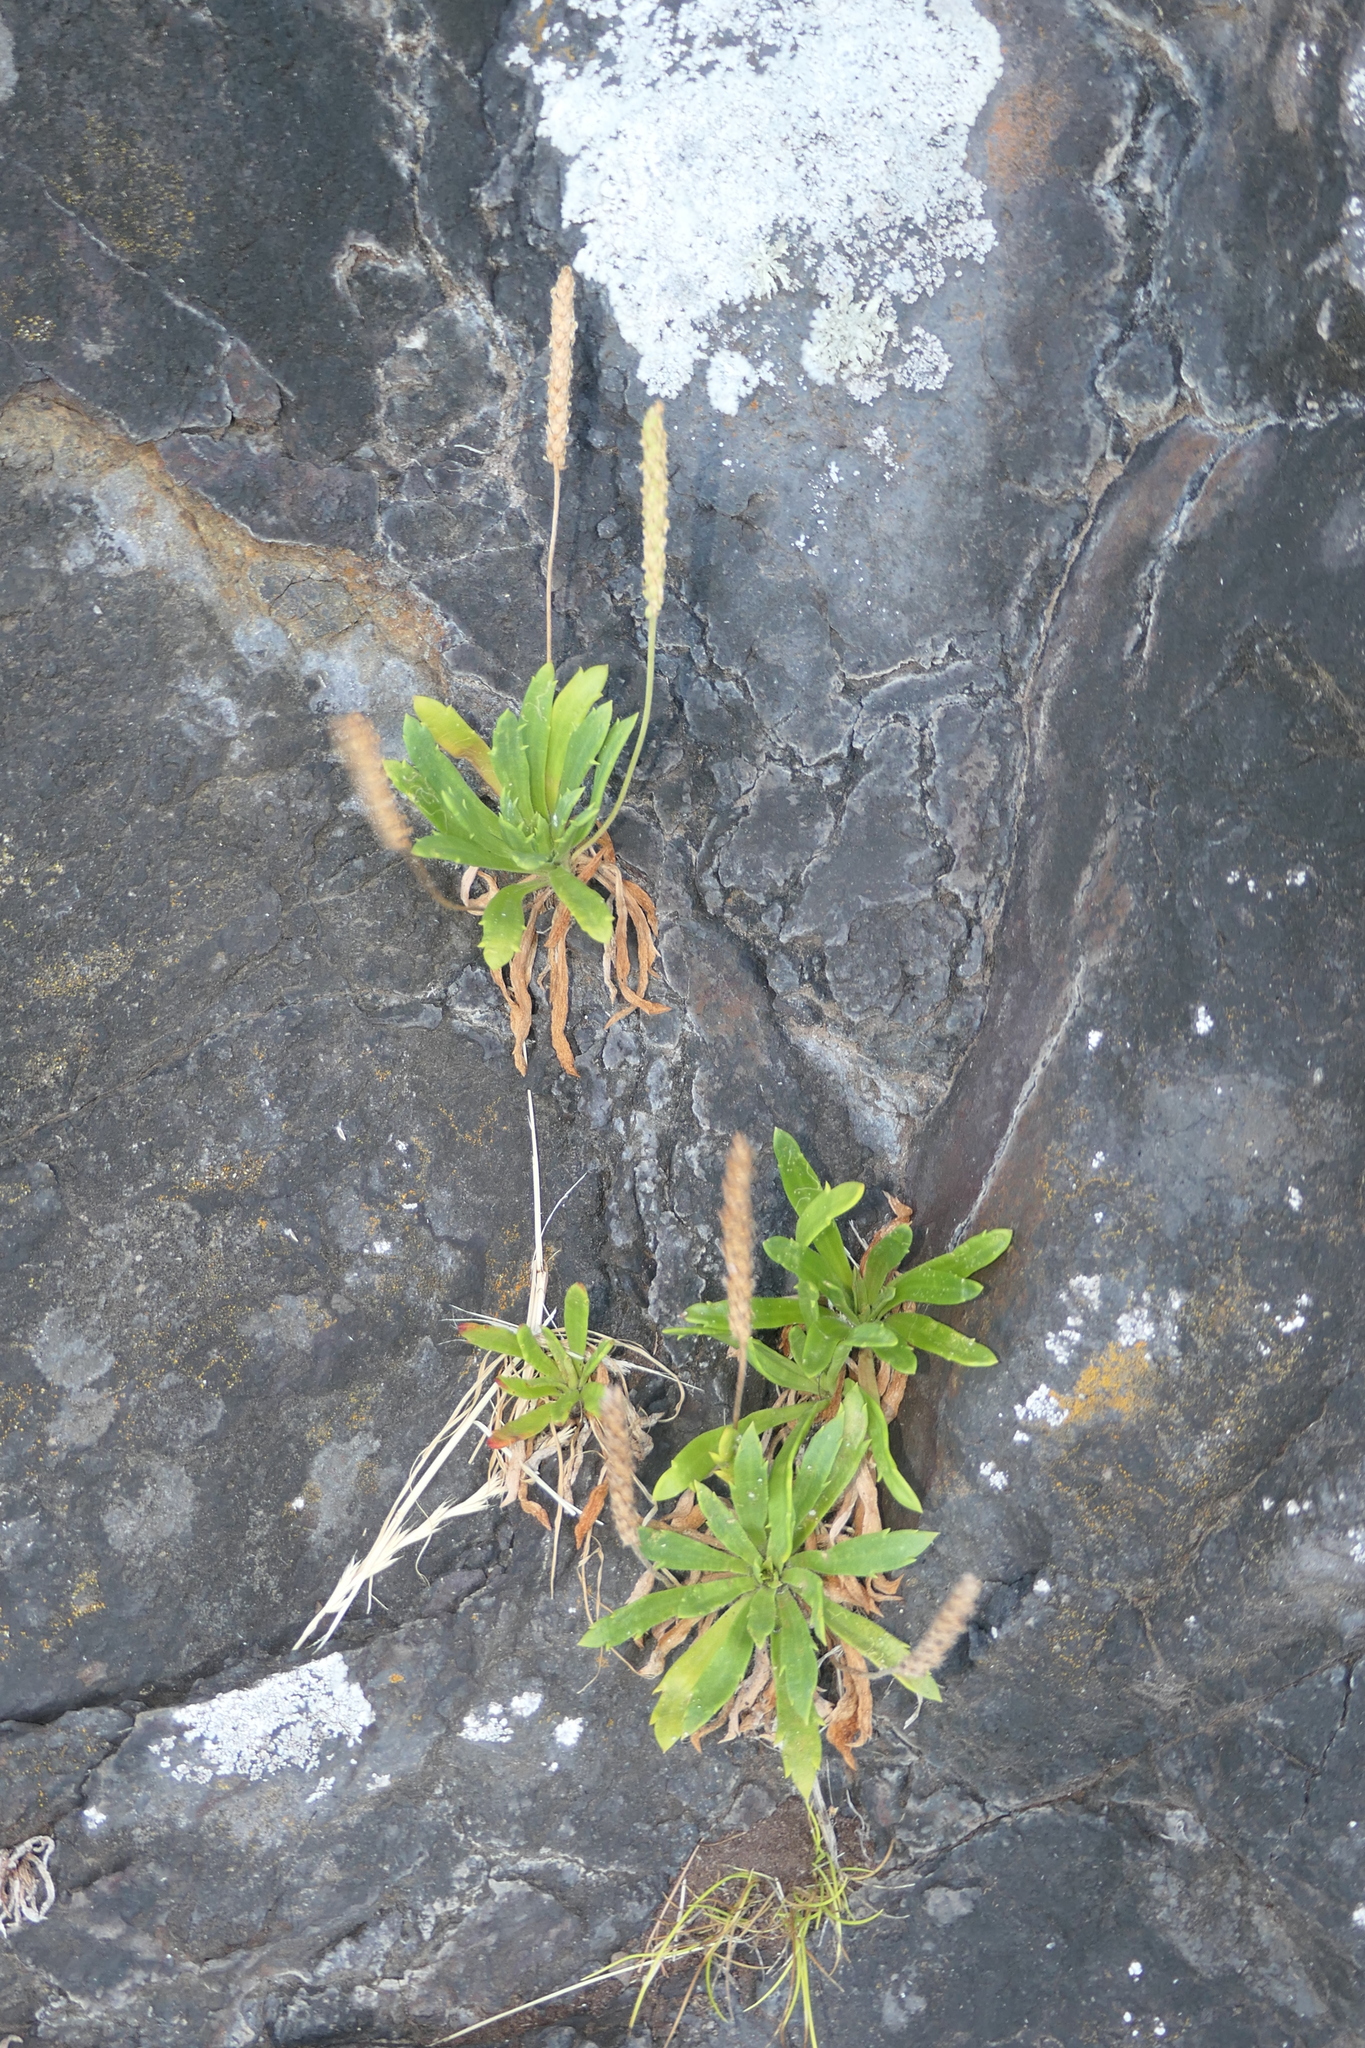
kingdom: Plantae
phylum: Tracheophyta
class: Magnoliopsida
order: Lamiales
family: Plantaginaceae
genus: Plantago
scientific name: Plantago coronopus
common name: Buck's-horn plantain
